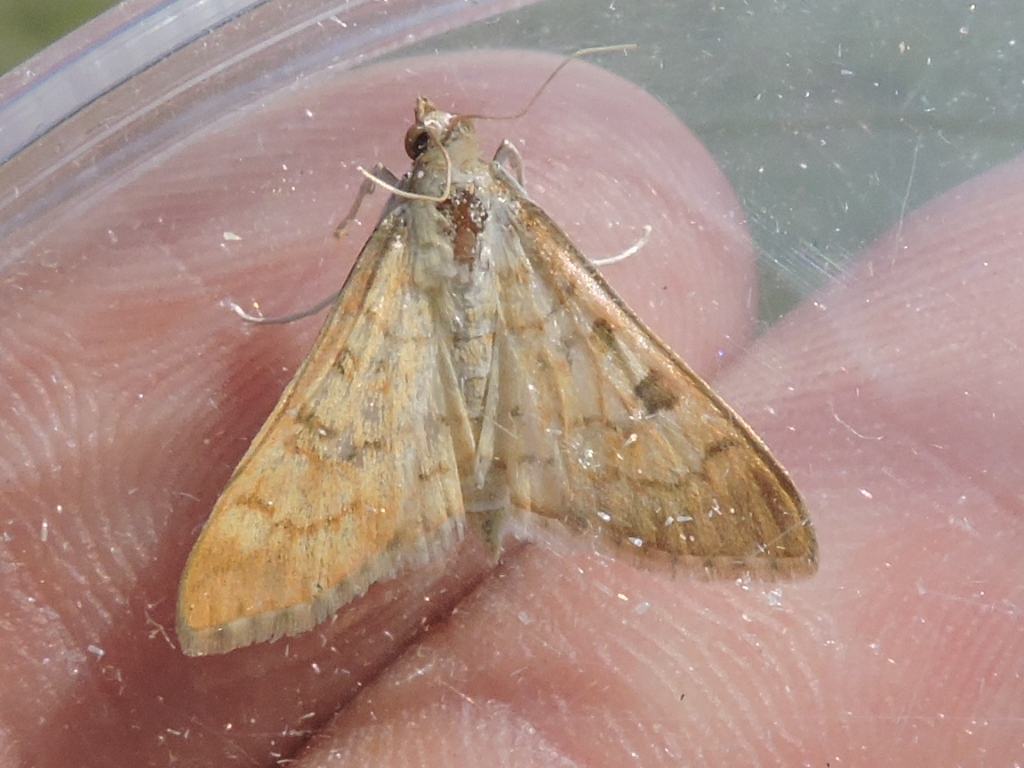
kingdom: Animalia
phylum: Arthropoda
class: Insecta
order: Lepidoptera
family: Crambidae
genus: Udea
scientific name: Udea rubigalis
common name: Celery leaftier moth
